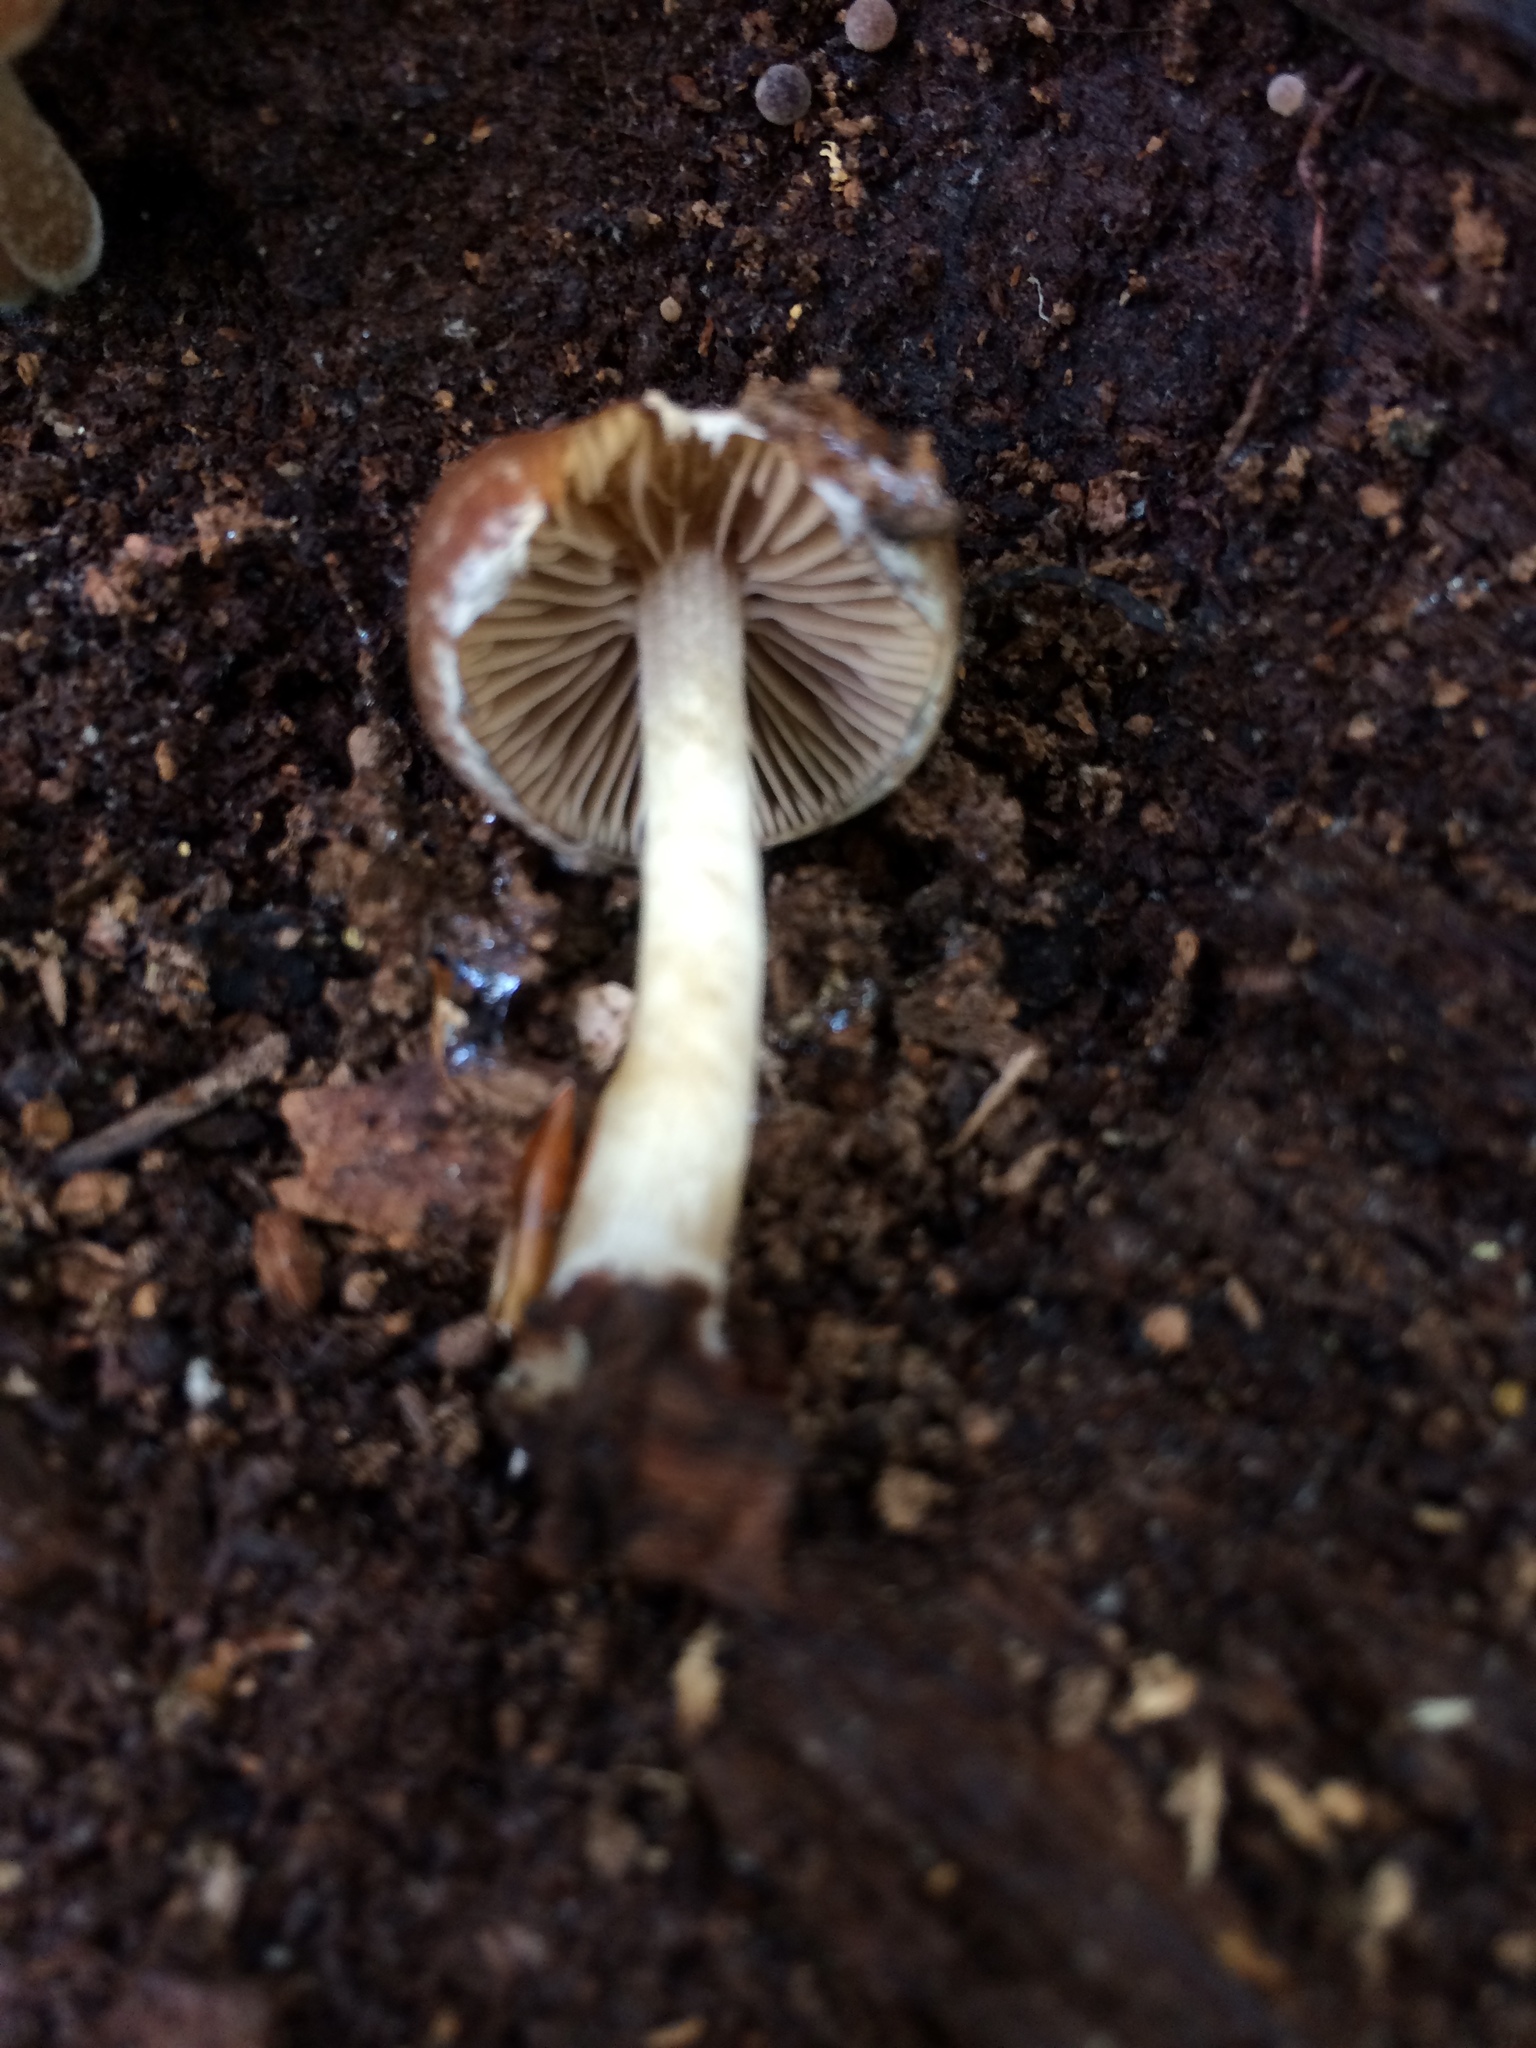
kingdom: Fungi
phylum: Basidiomycota
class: Agaricomycetes
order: Agaricales
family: Psathyrellaceae
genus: Psathyrella
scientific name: Psathyrella septentrionalis
